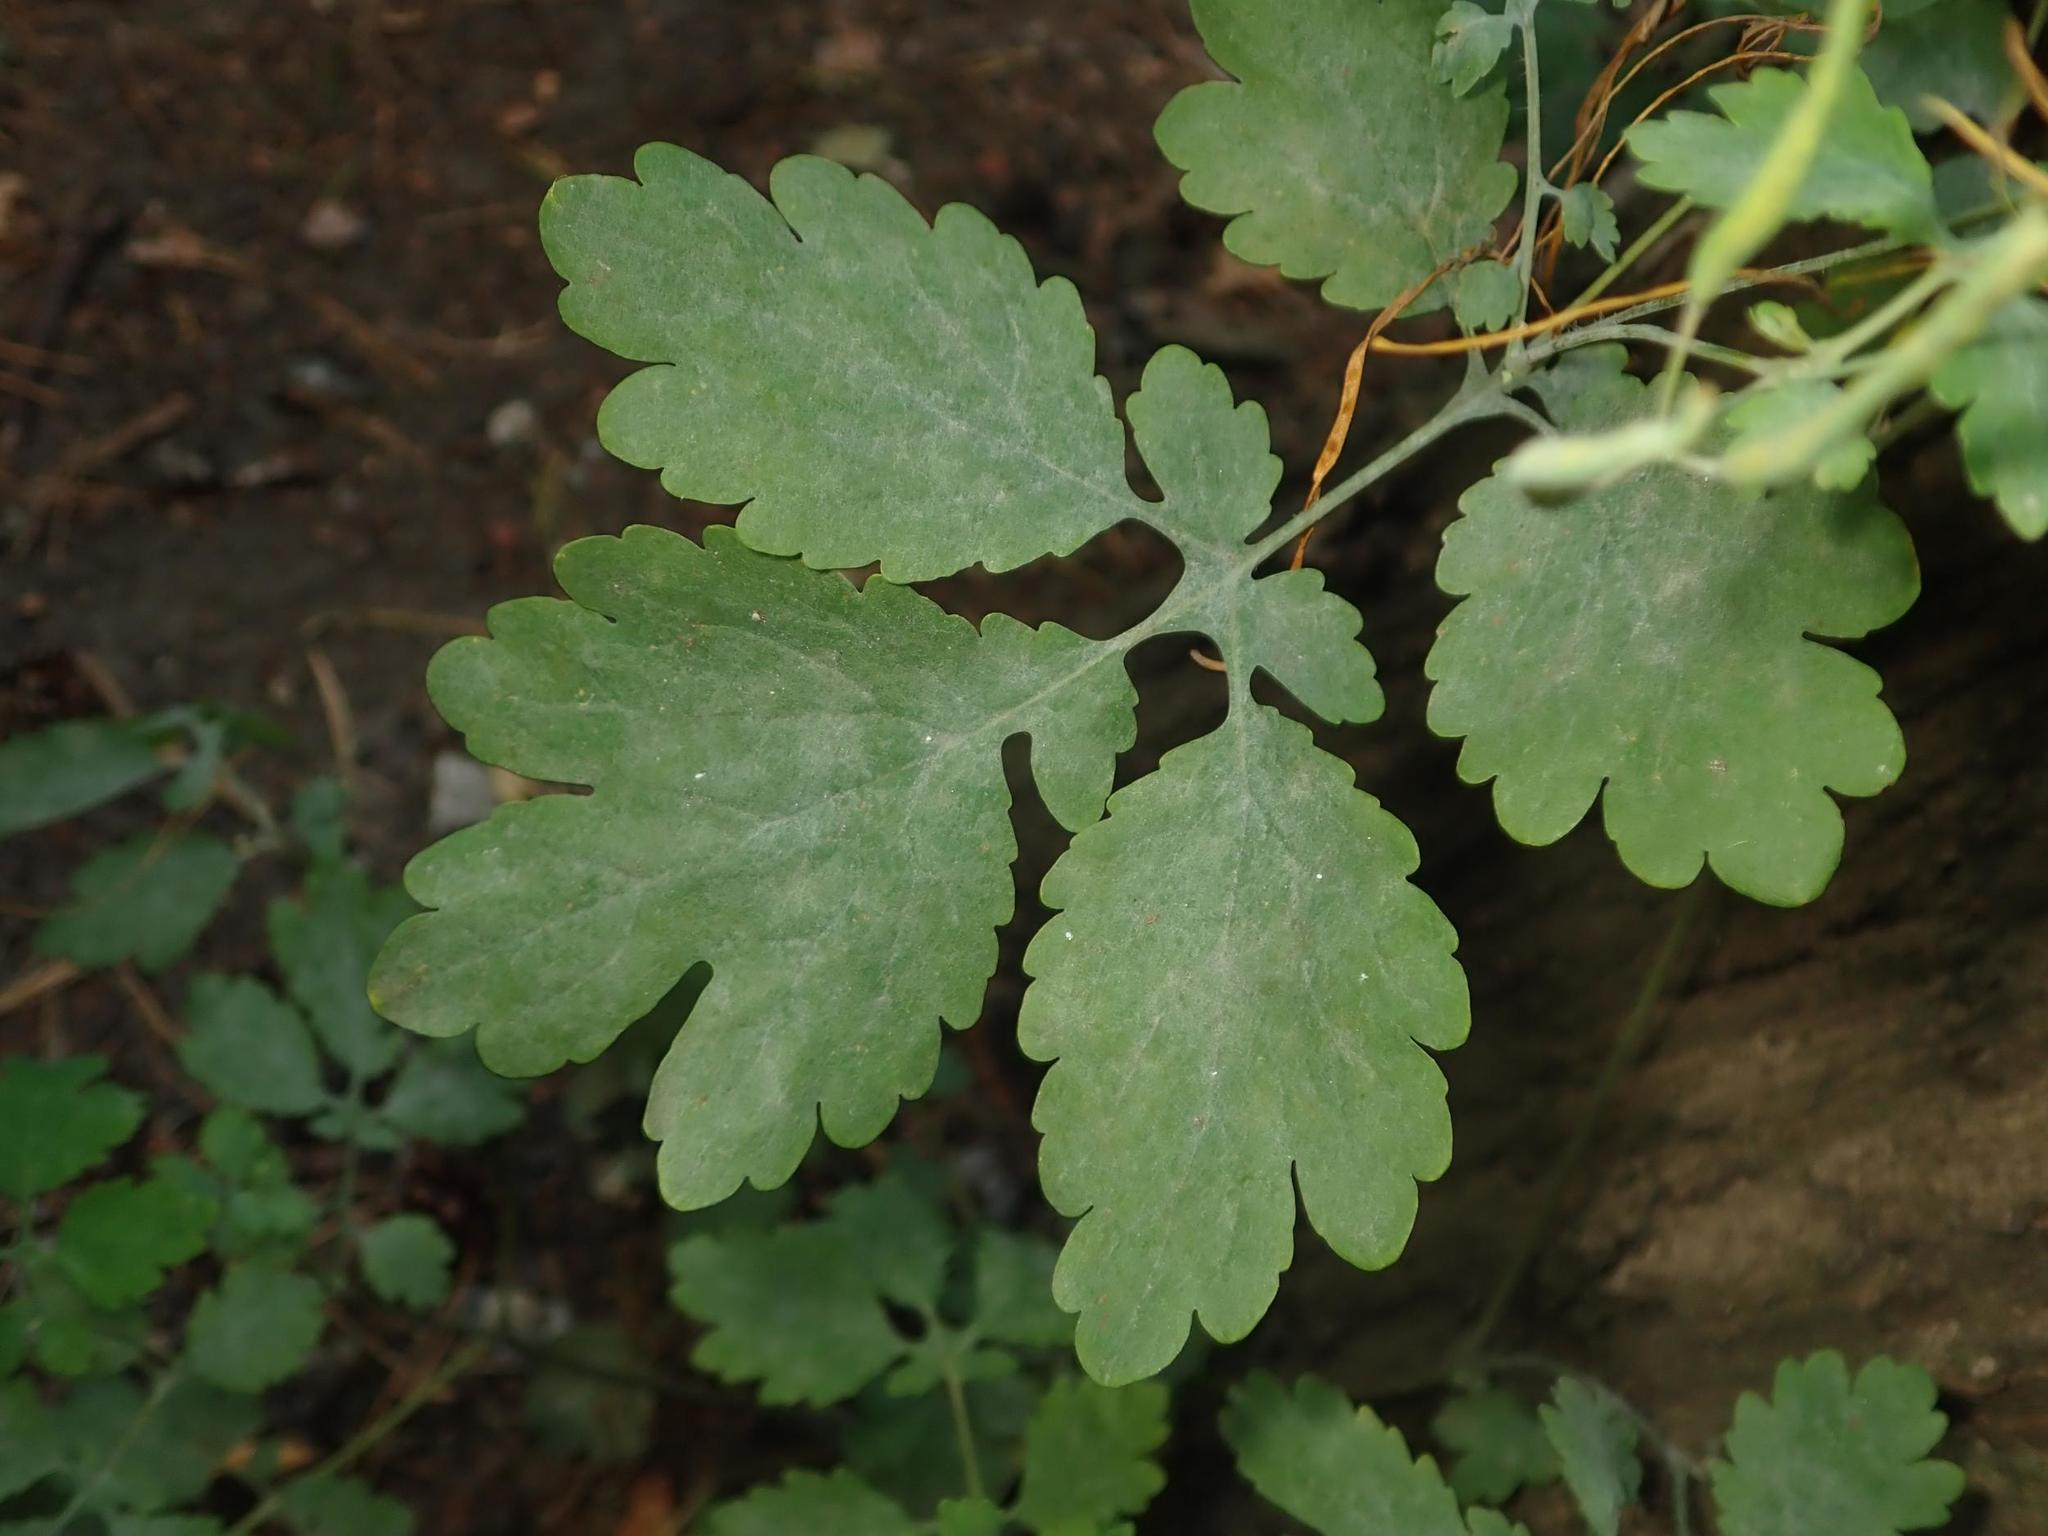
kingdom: Fungi
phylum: Ascomycota
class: Leotiomycetes
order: Helotiales
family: Erysiphaceae
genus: Erysiphe
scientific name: Erysiphe macleayae
